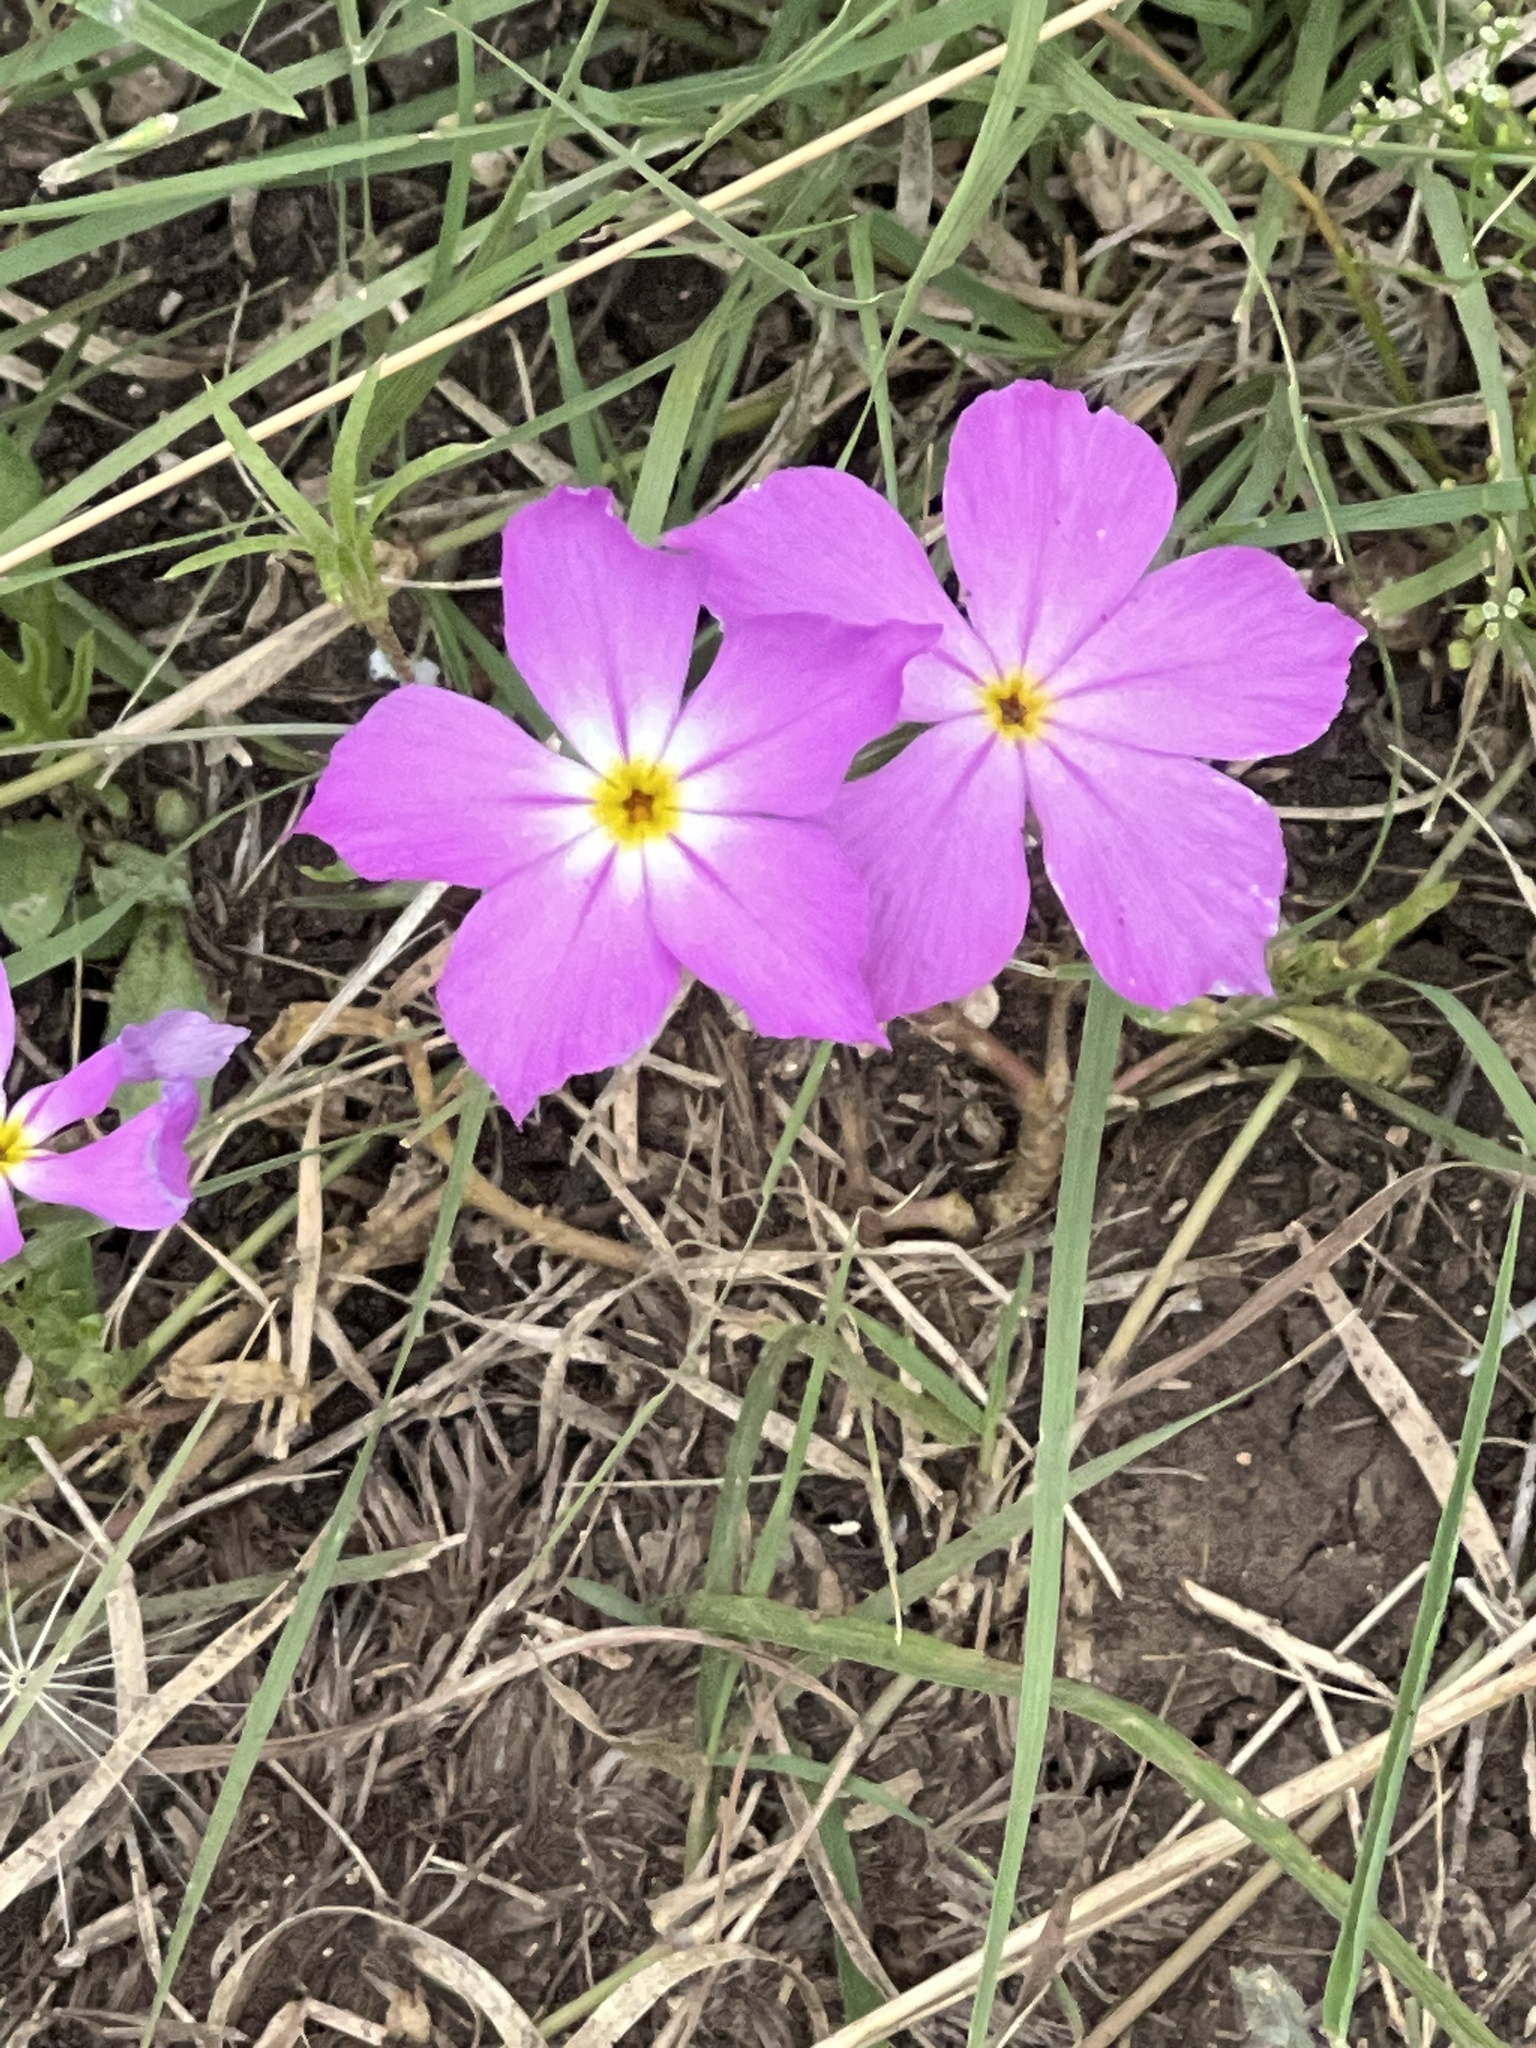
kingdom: Plantae
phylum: Tracheophyta
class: Magnoliopsida
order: Ericales
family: Polemoniaceae
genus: Phlox
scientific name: Phlox roemeriana
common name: Roemer's phlox
